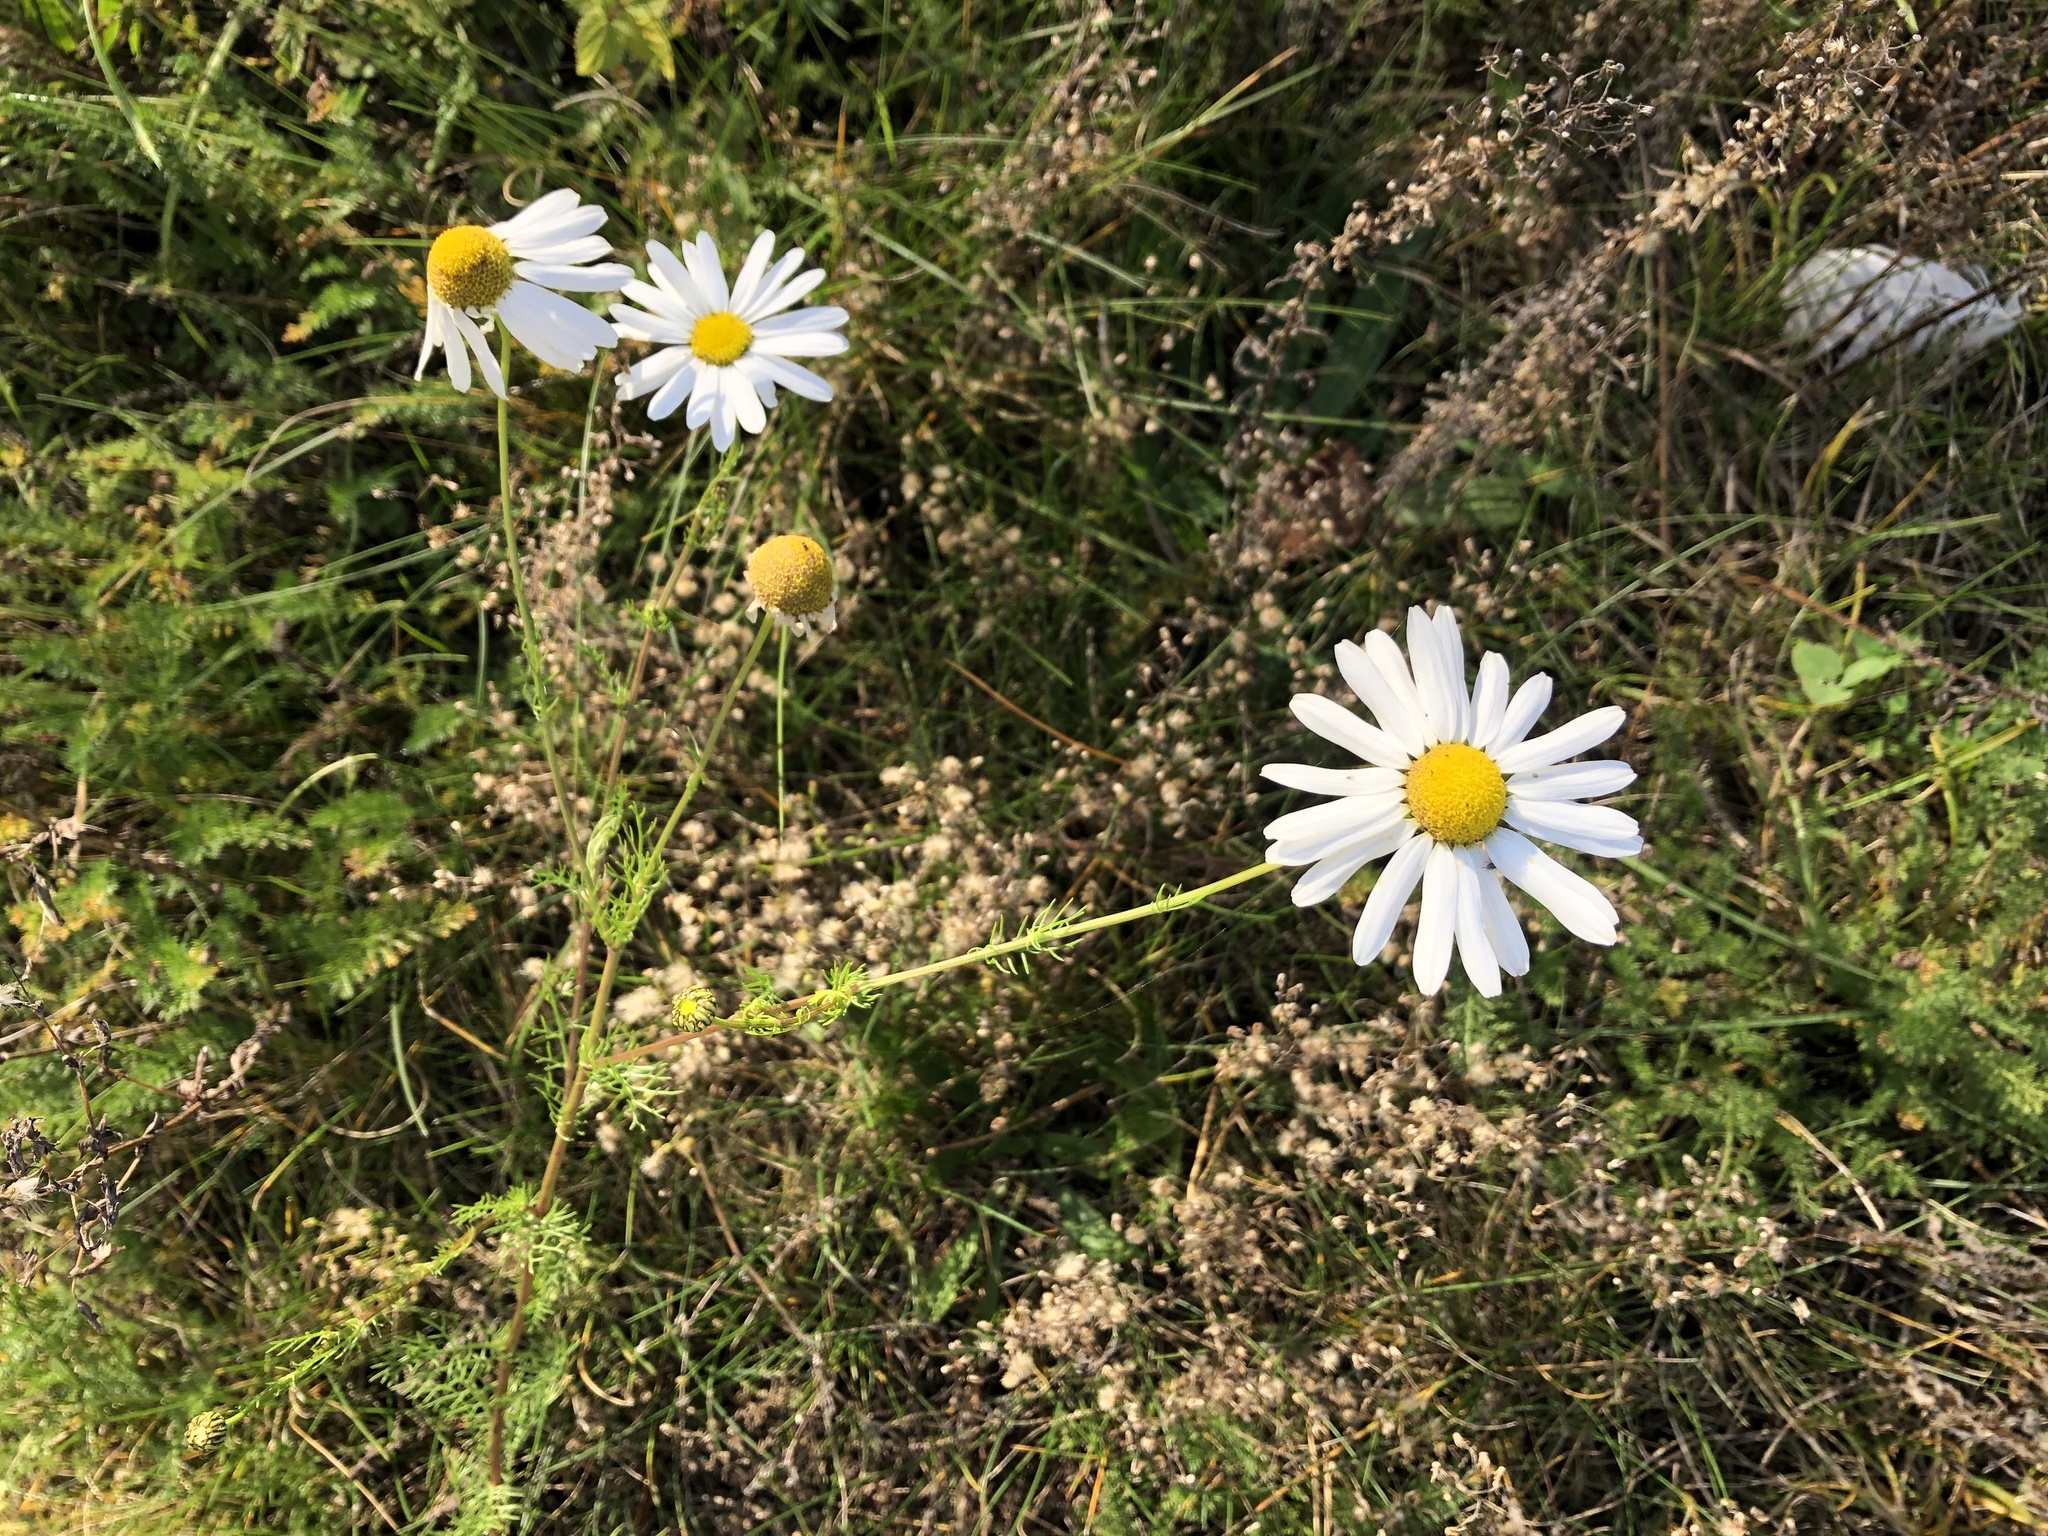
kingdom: Plantae
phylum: Tracheophyta
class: Magnoliopsida
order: Asterales
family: Asteraceae
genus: Tripleurospermum
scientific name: Tripleurospermum inodorum
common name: Scentless mayweed
